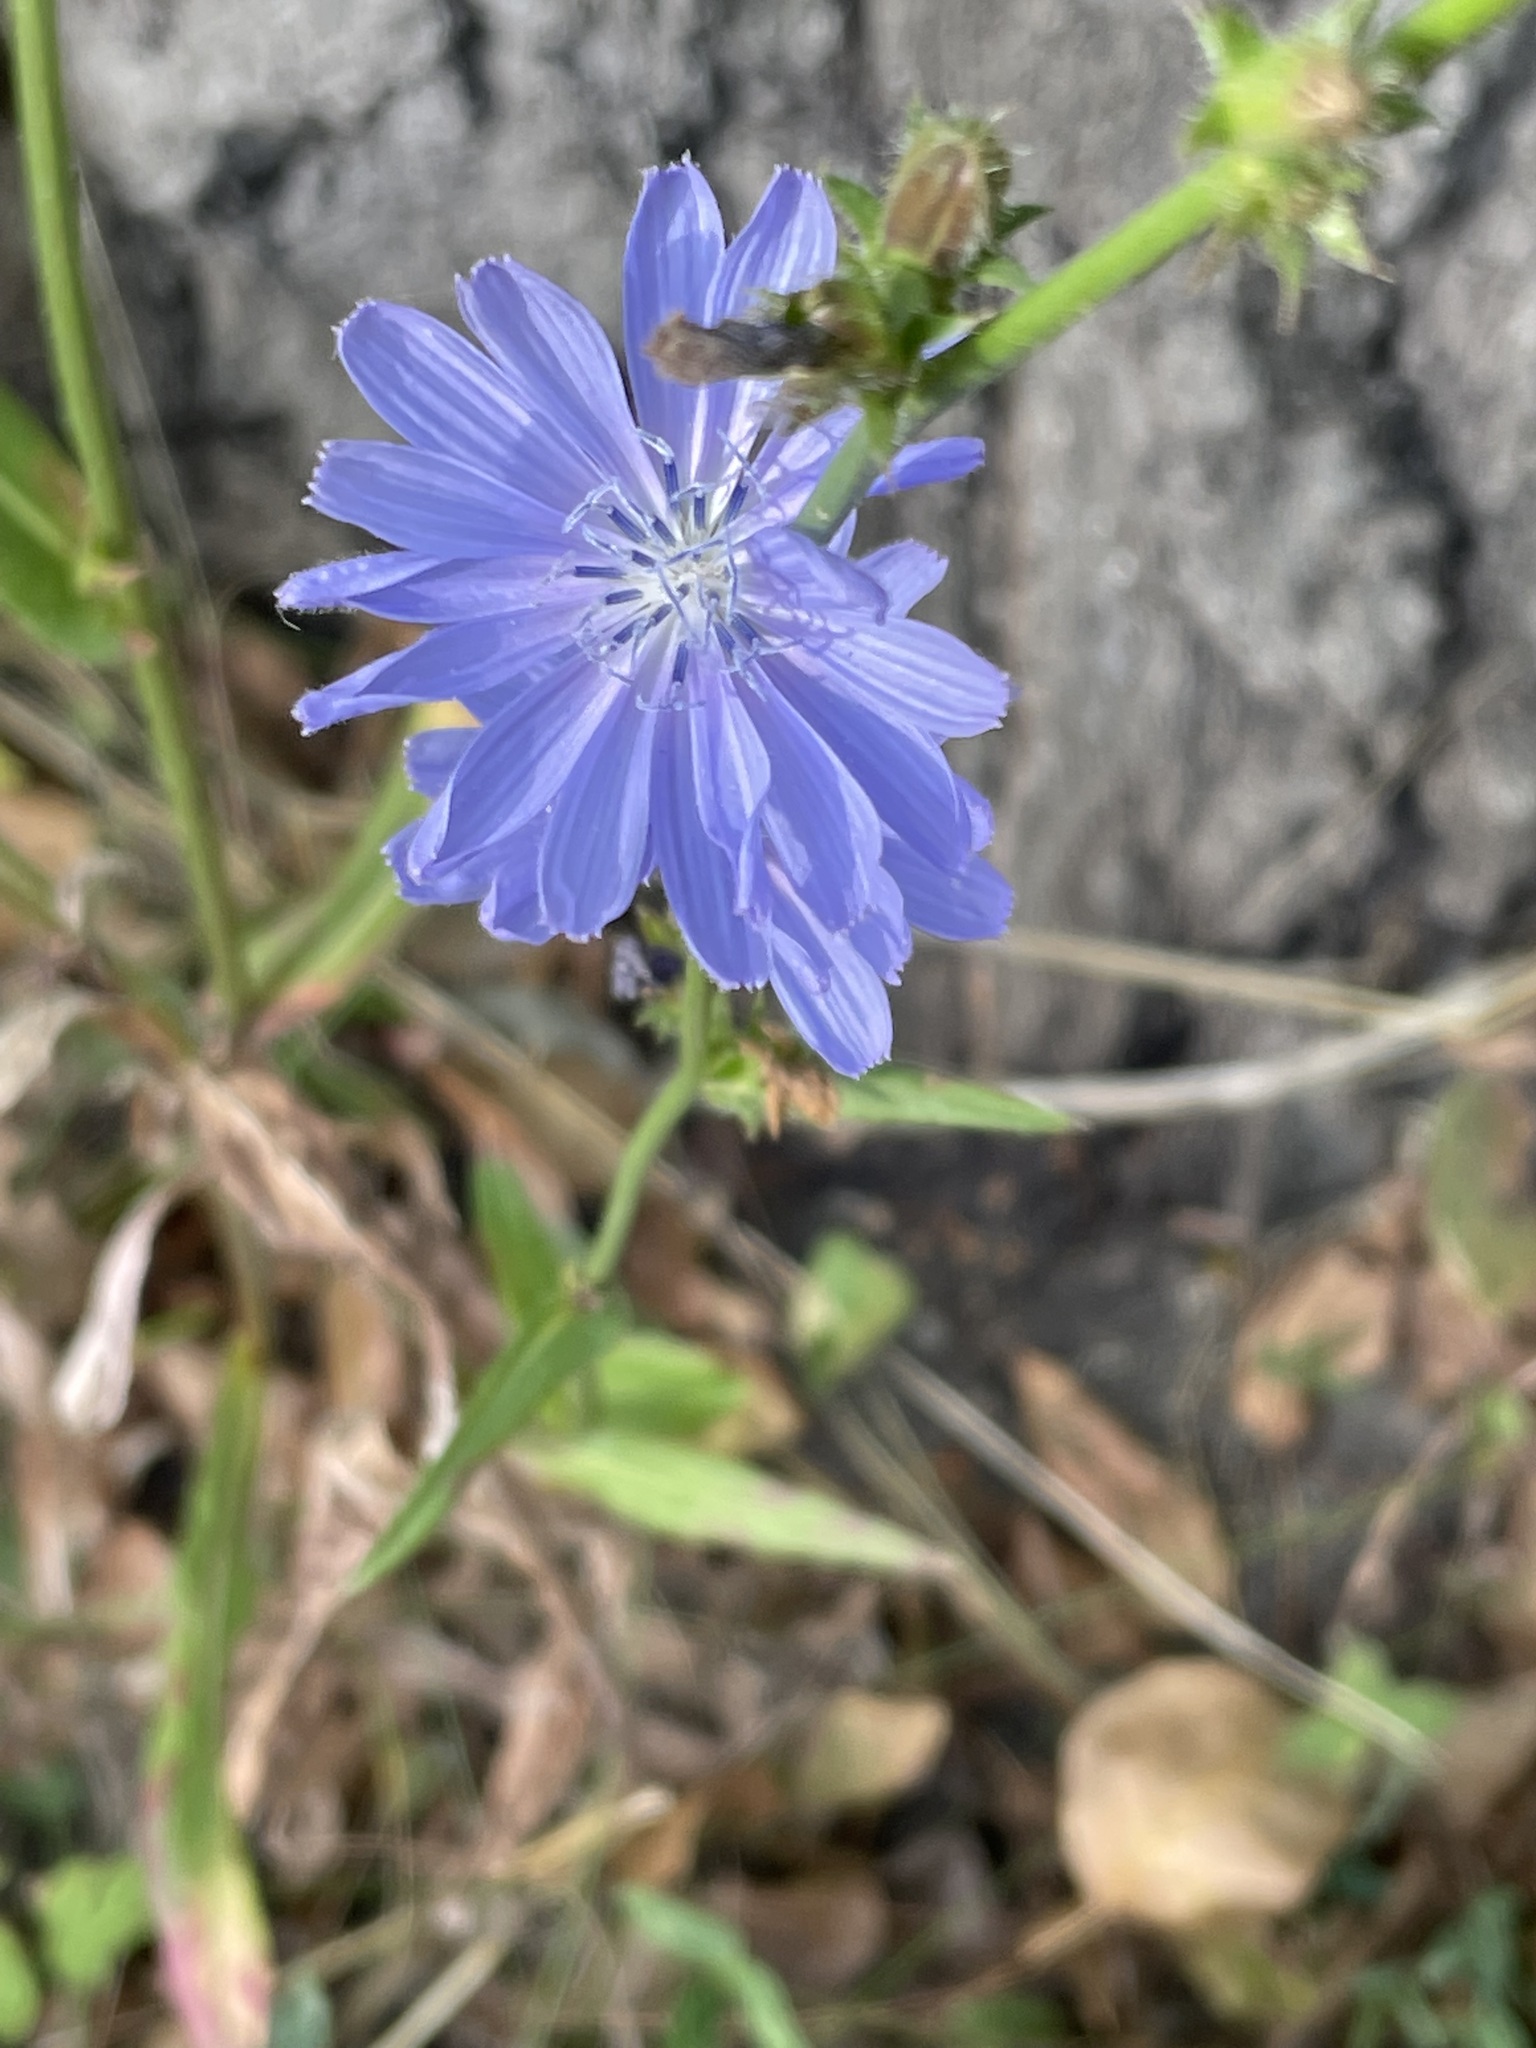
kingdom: Plantae
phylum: Tracheophyta
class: Magnoliopsida
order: Asterales
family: Asteraceae
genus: Cichorium
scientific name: Cichorium intybus
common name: Chicory
